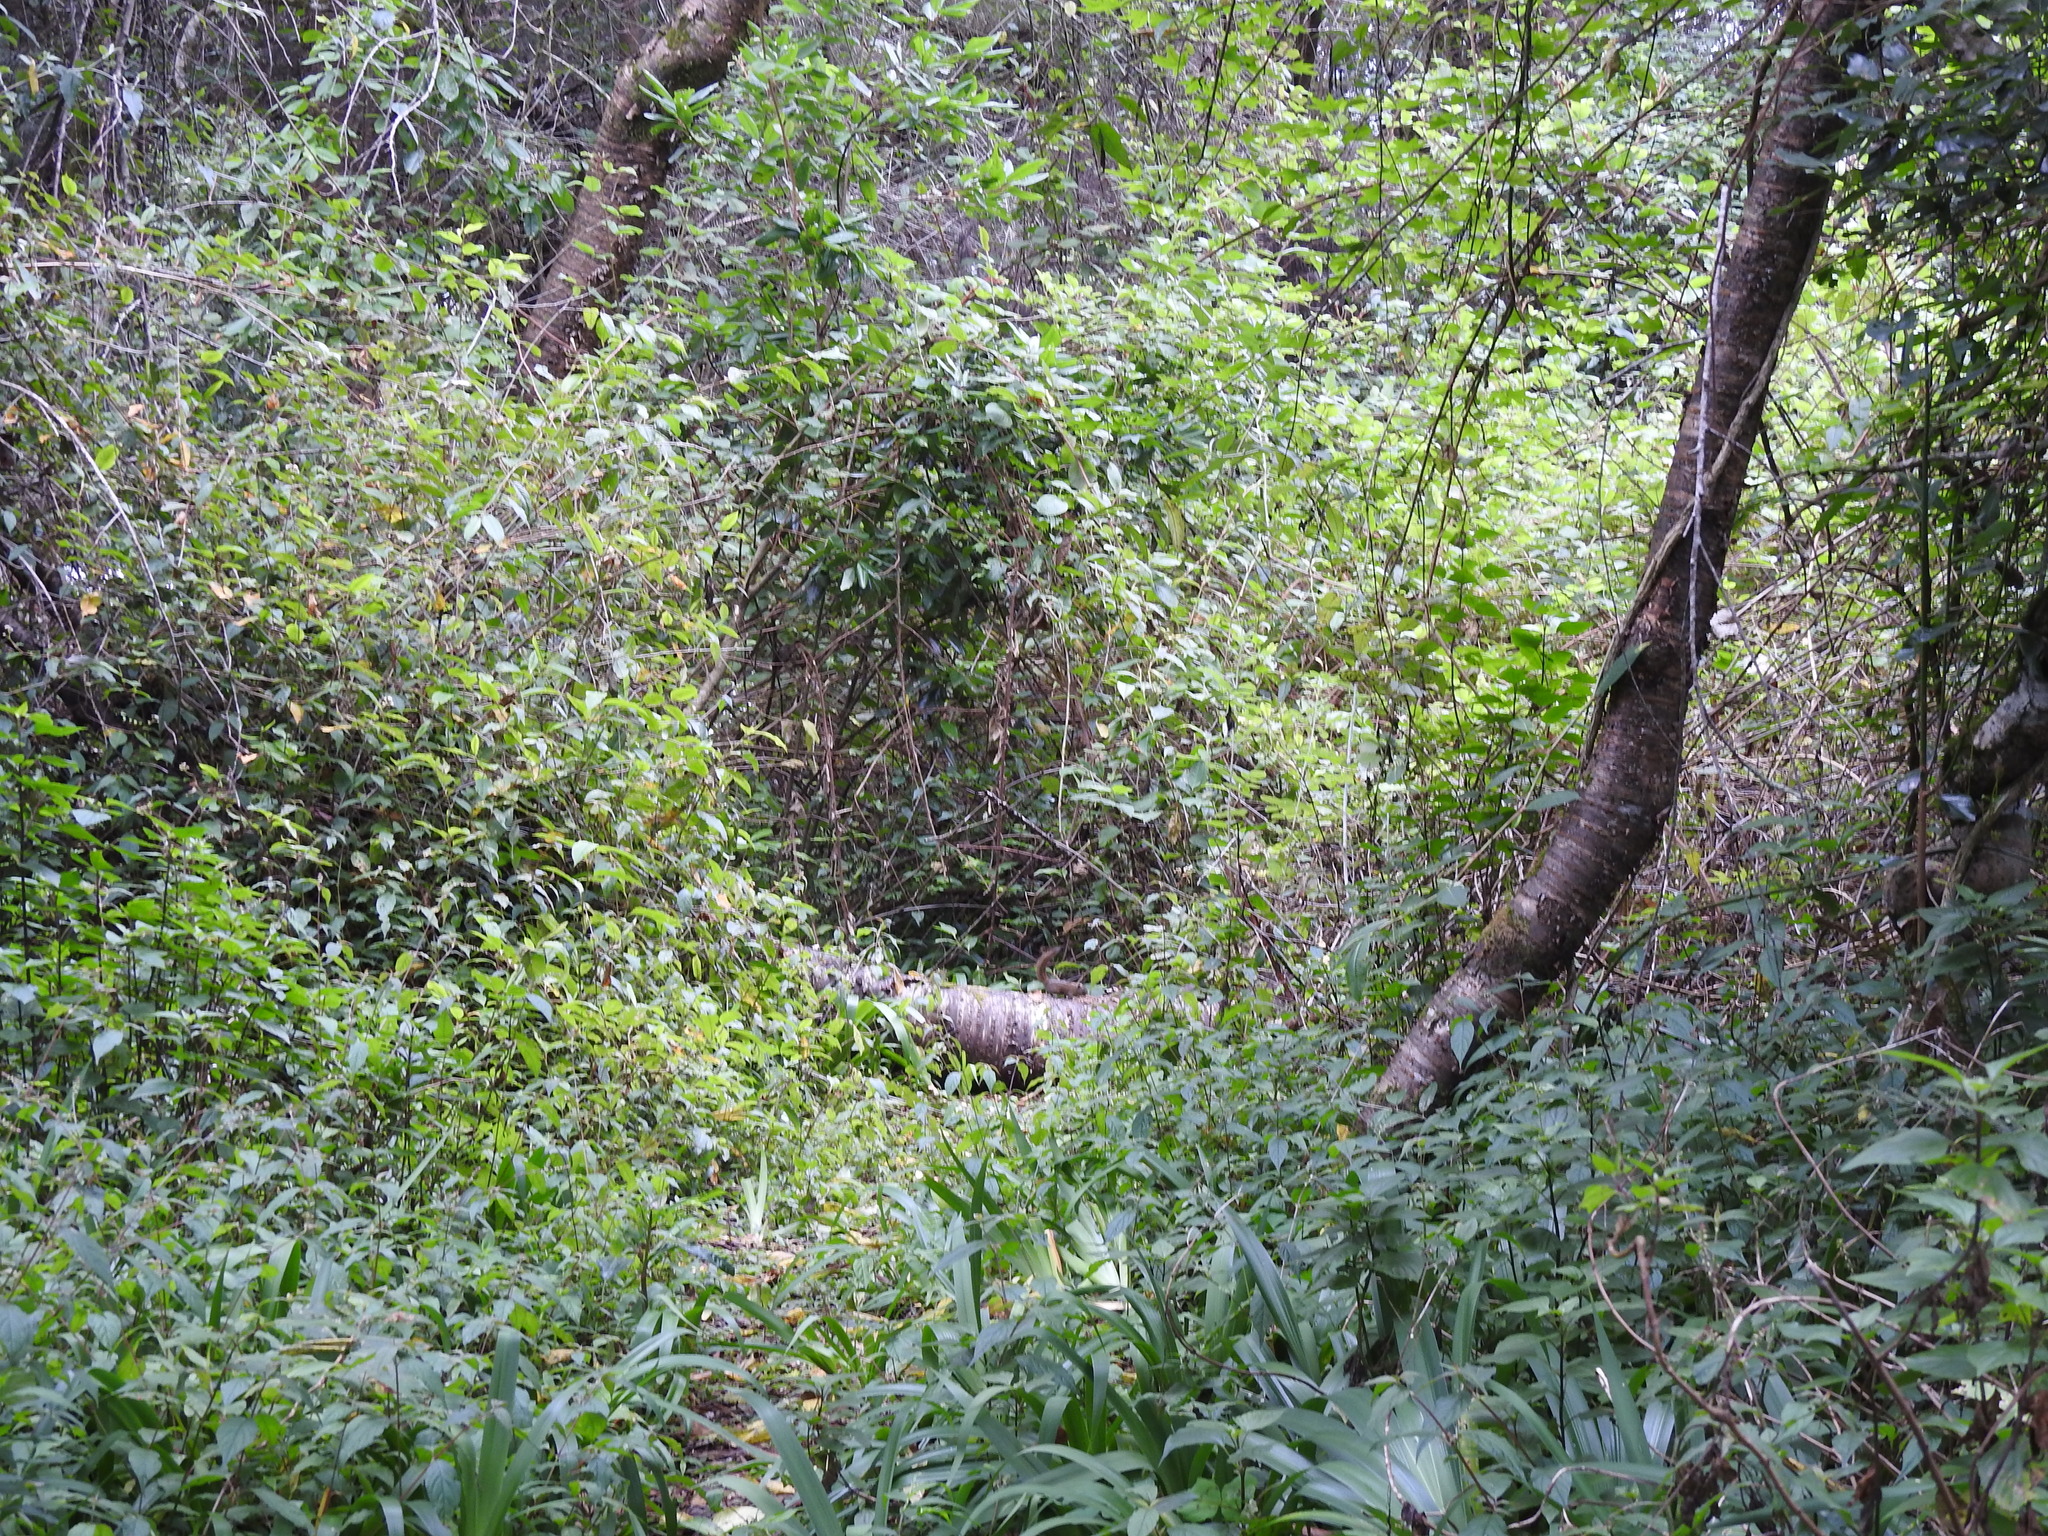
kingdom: Animalia
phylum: Chordata
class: Mammalia
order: Rodentia
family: Sciuridae
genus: Funambulus
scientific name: Funambulus sublineatus
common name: Dusky palm squirrel
